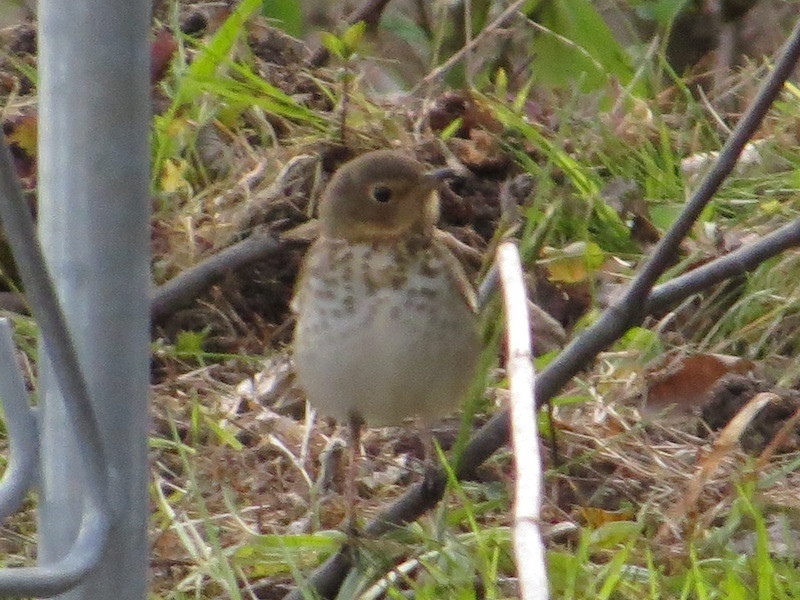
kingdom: Animalia
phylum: Chordata
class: Aves
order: Passeriformes
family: Turdidae
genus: Catharus
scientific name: Catharus ustulatus
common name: Swainson's thrush
